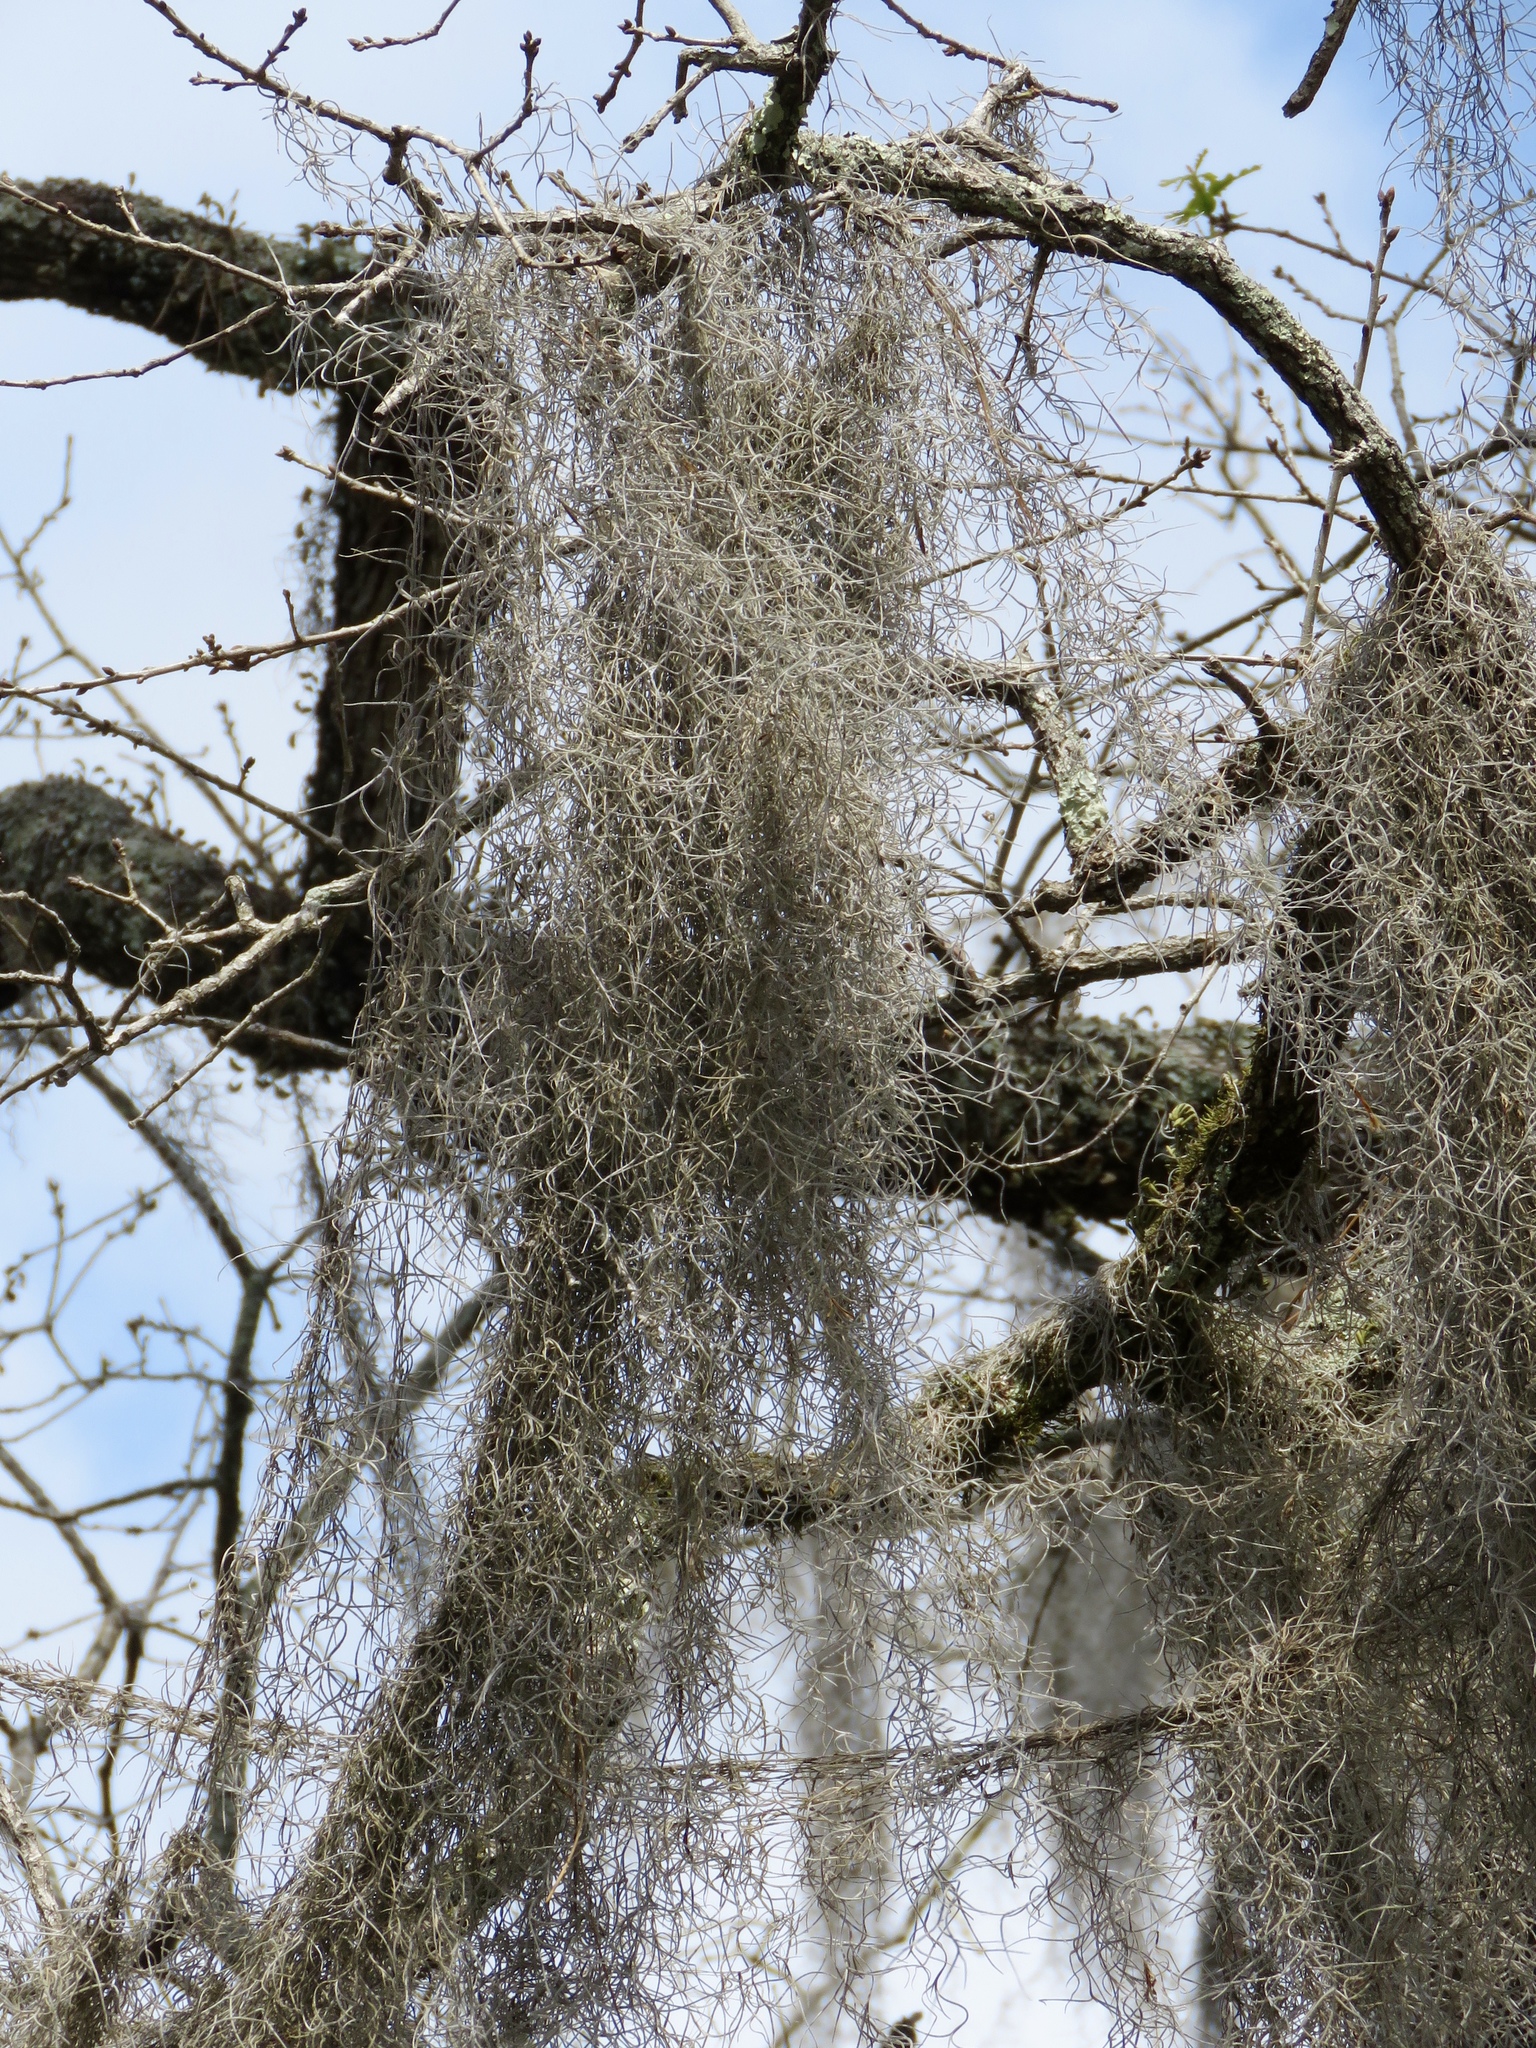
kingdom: Plantae
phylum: Tracheophyta
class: Liliopsida
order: Poales
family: Bromeliaceae
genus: Tillandsia
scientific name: Tillandsia usneoides
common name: Spanish moss
